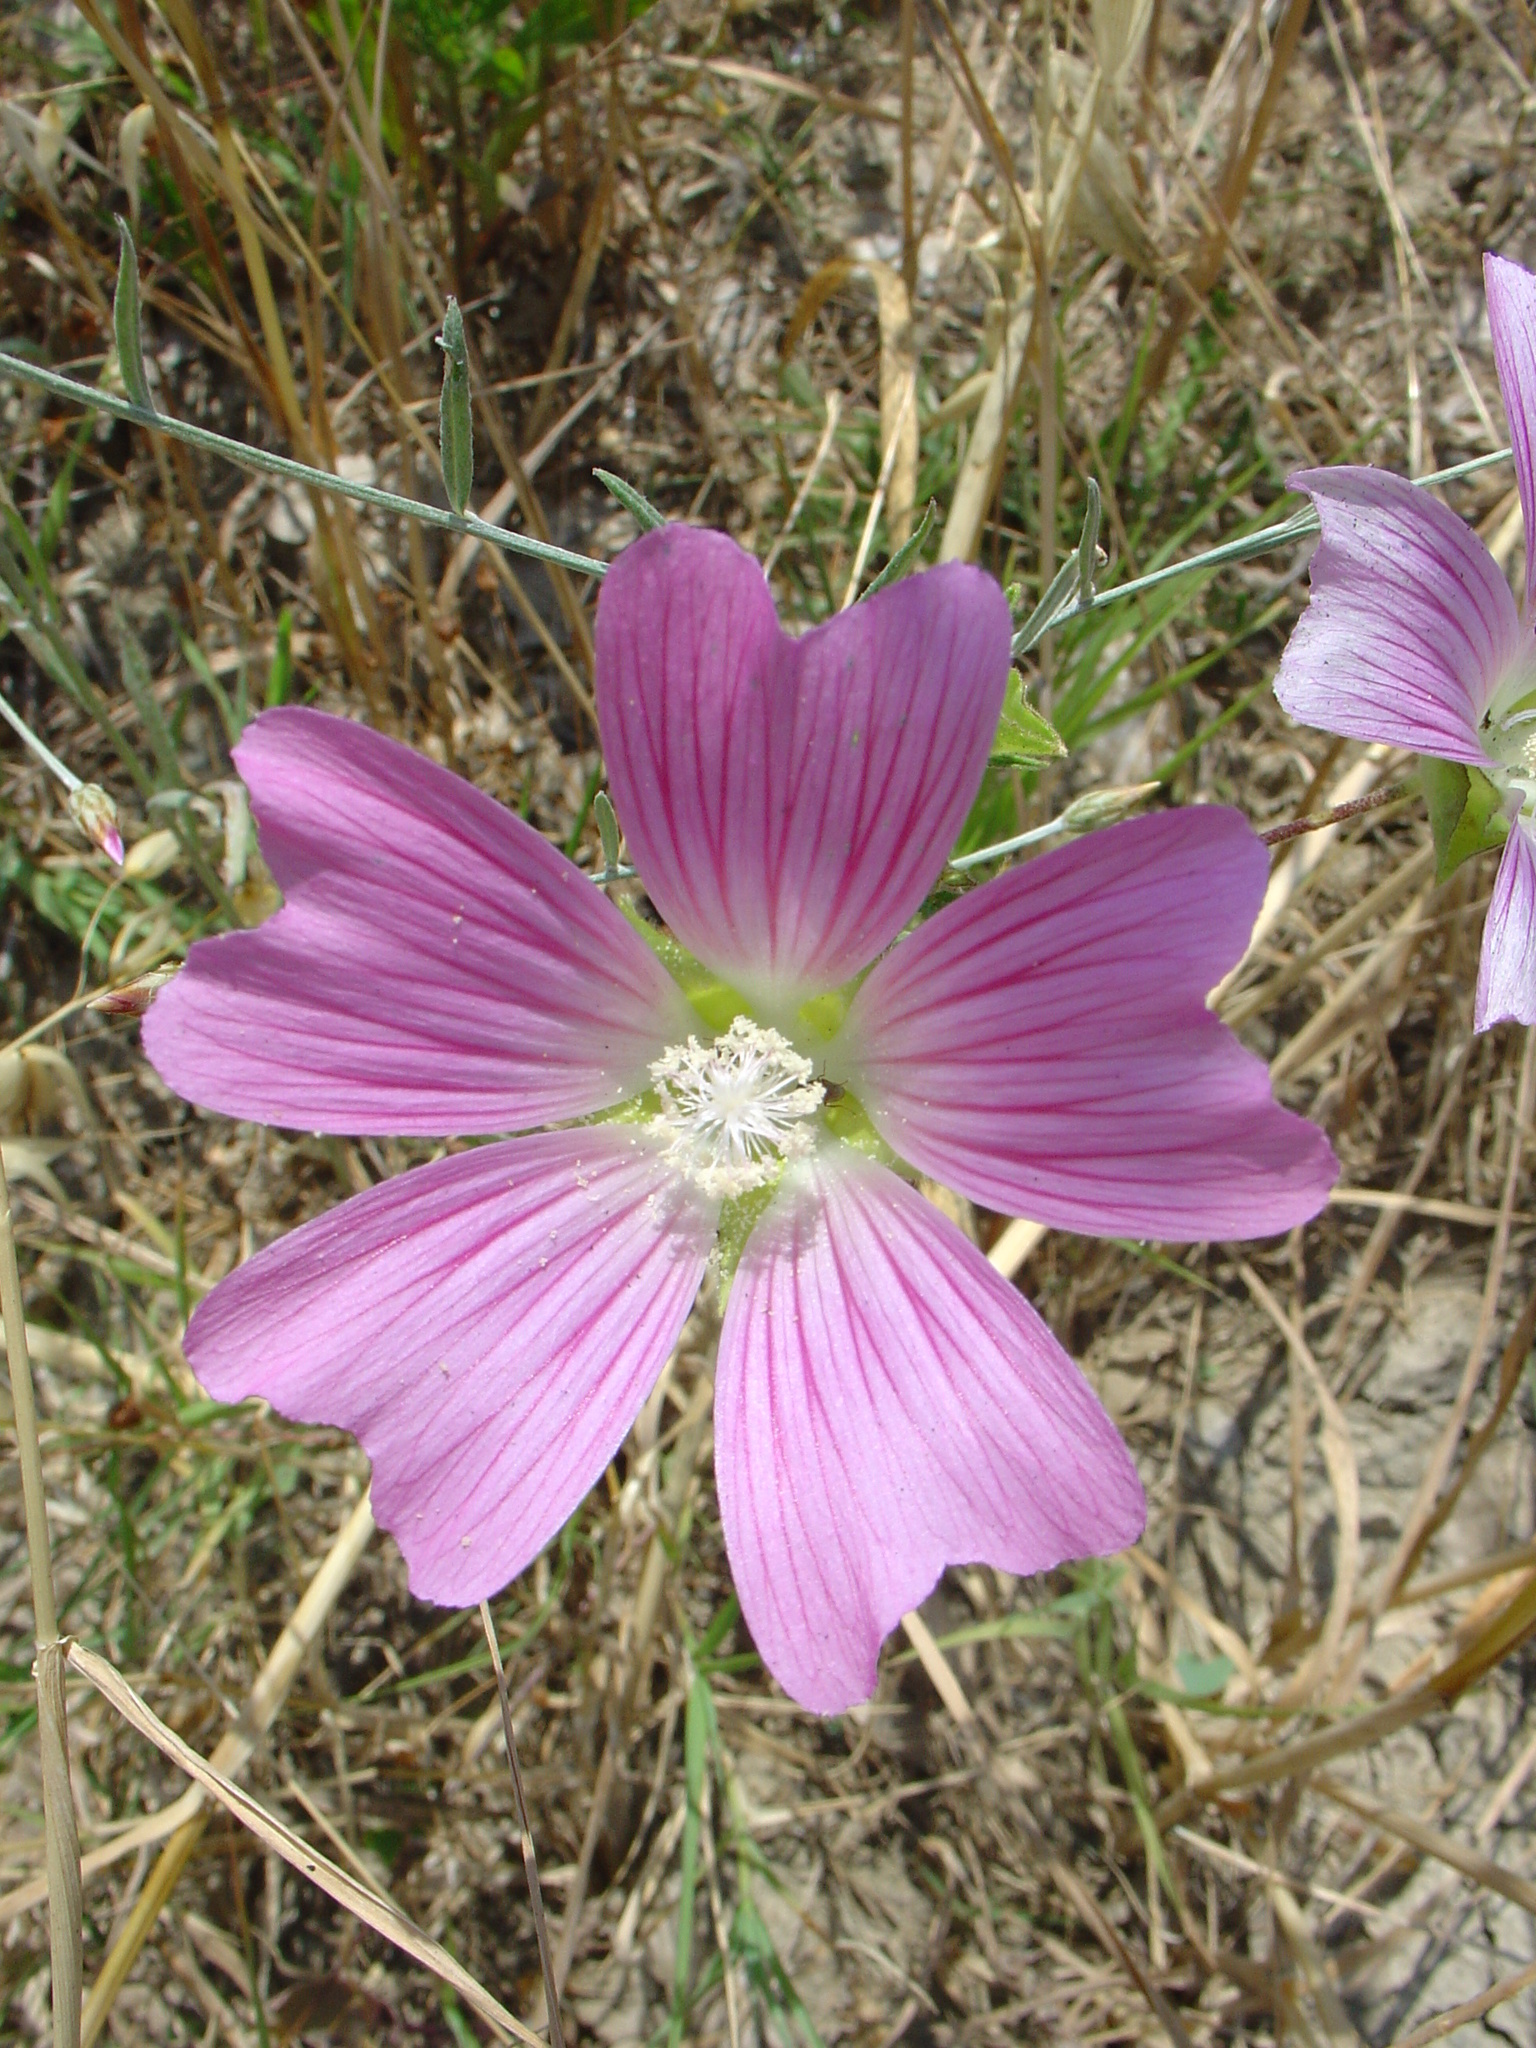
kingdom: Plantae
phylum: Tracheophyta
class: Magnoliopsida
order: Malvales
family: Malvaceae
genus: Malva
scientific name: Malva punctata
